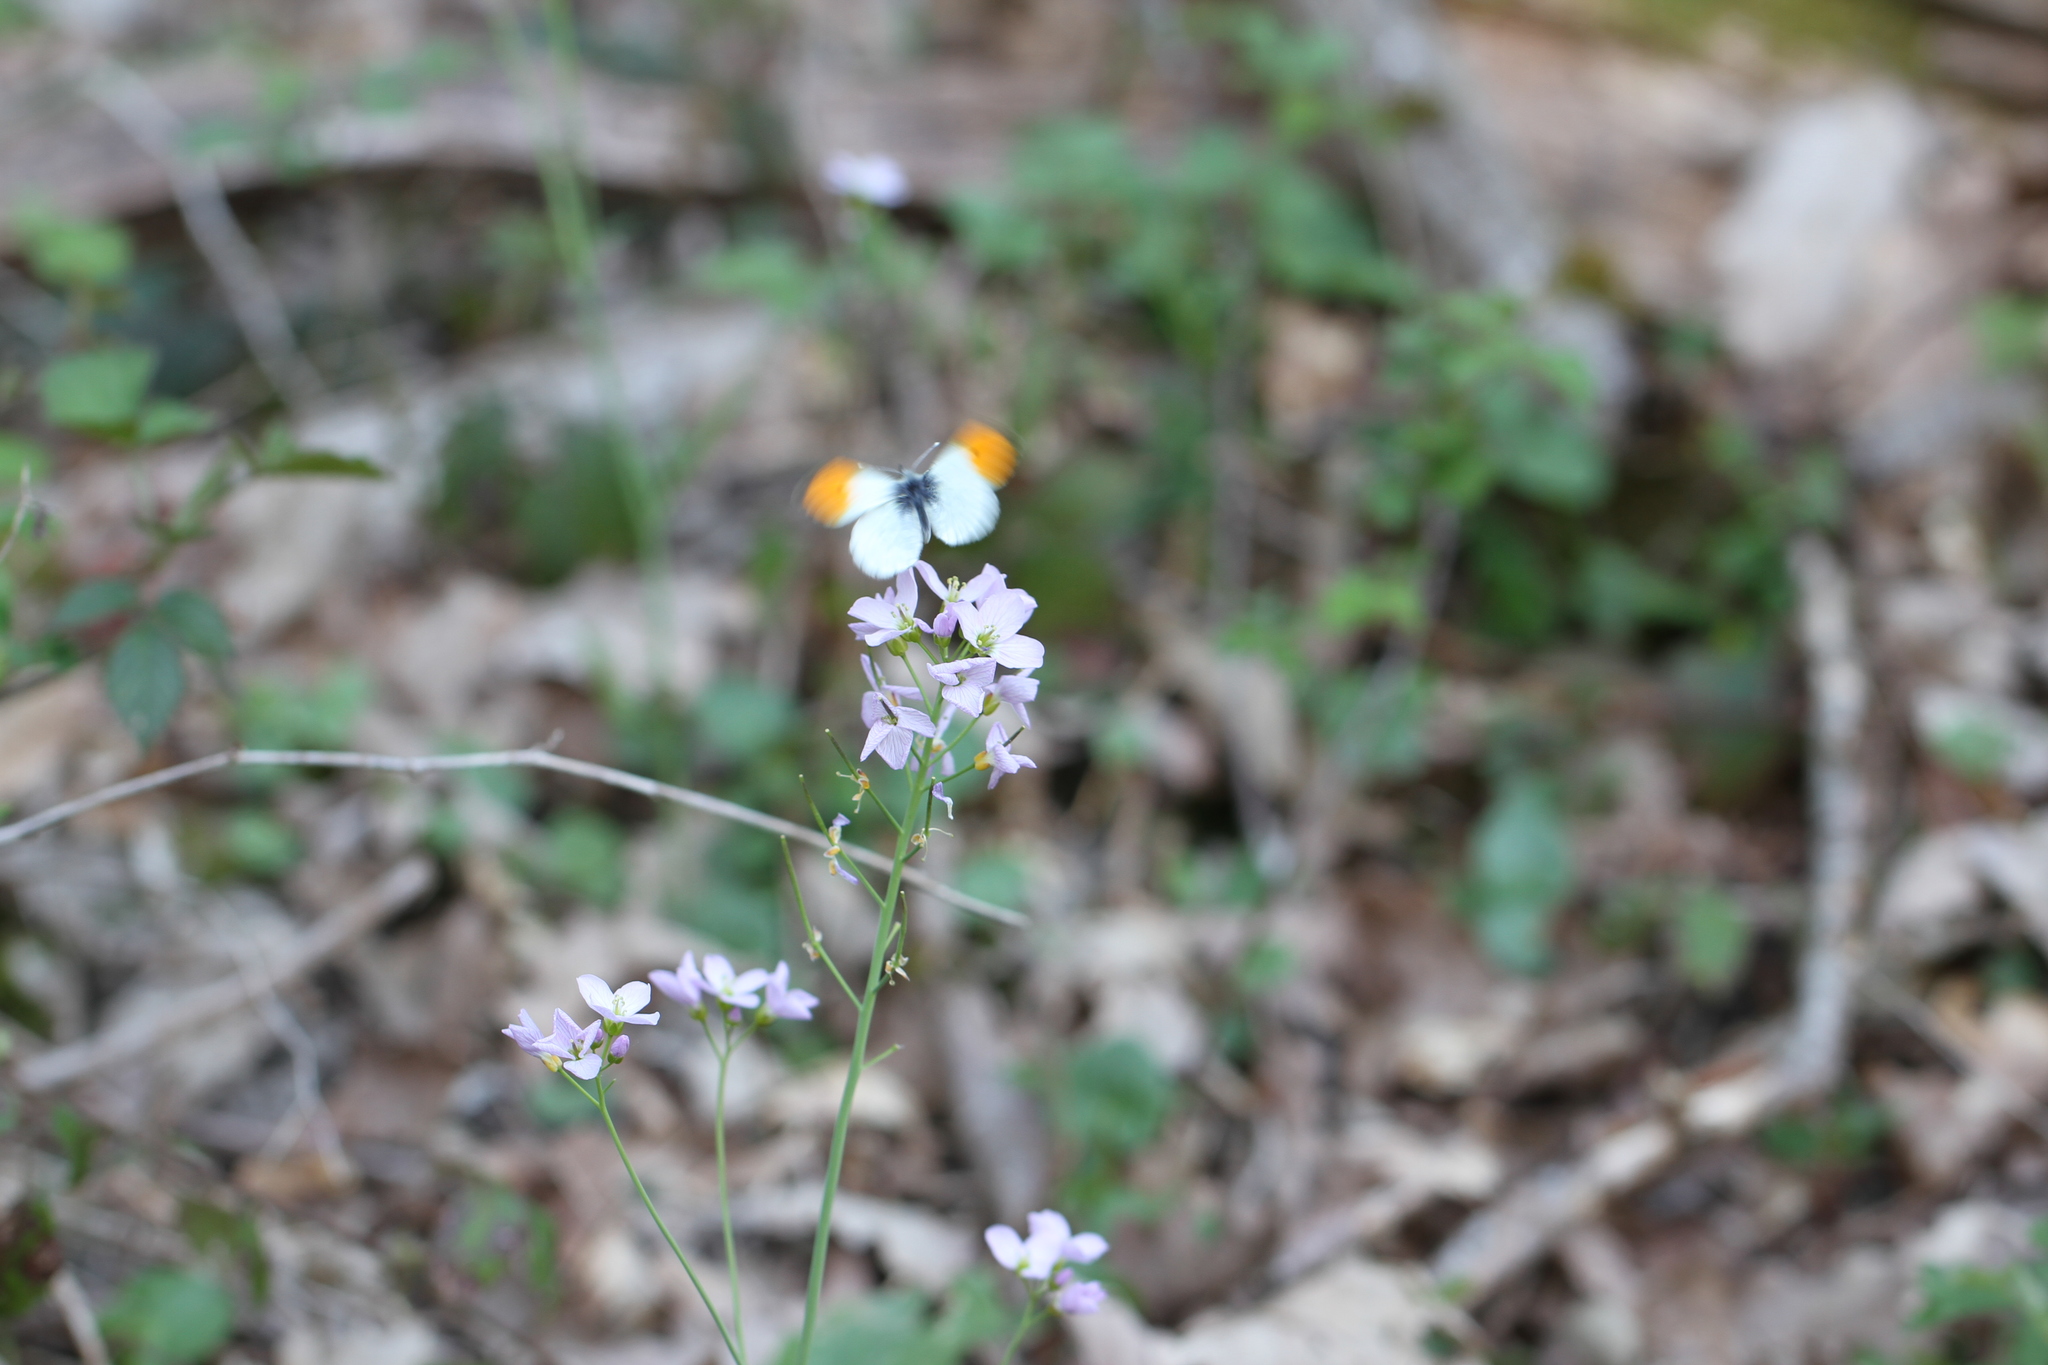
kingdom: Animalia
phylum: Arthropoda
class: Insecta
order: Lepidoptera
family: Pieridae
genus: Anthocharis
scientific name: Anthocharis cardamines
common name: Orange-tip
